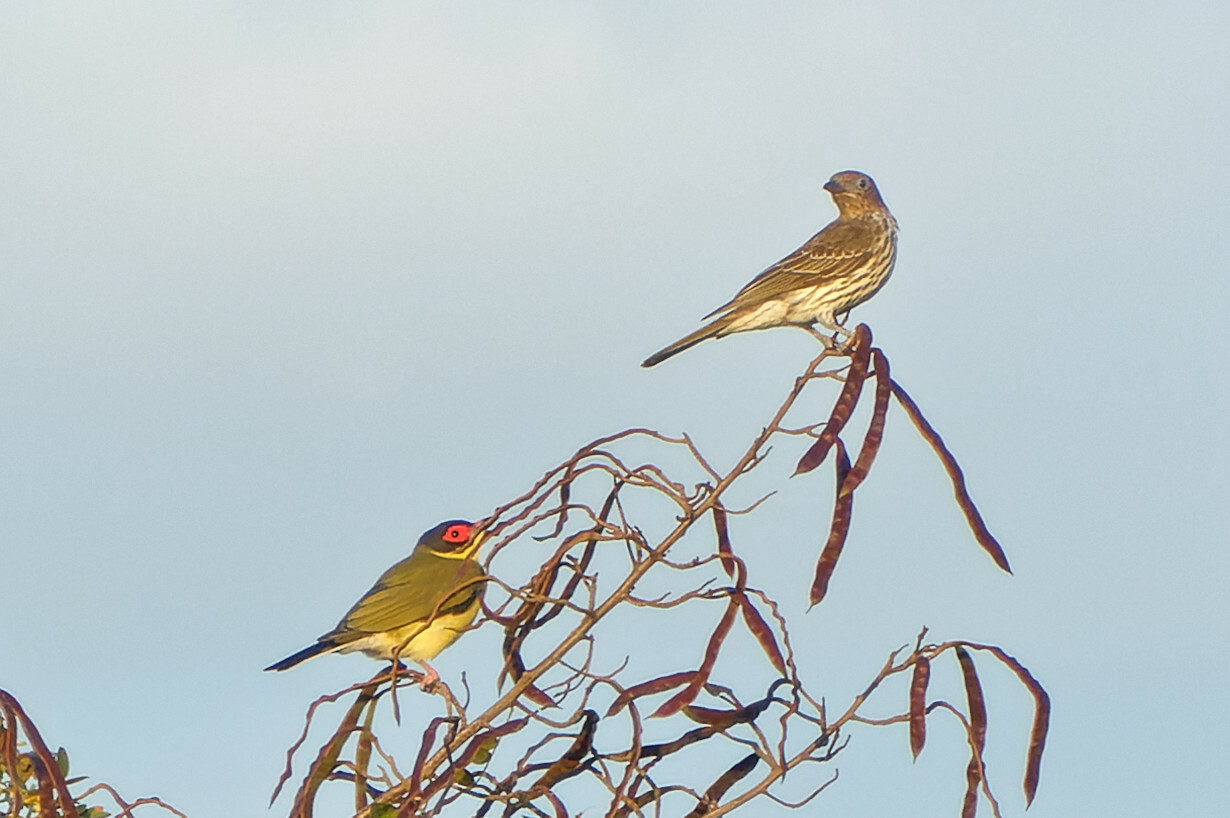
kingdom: Animalia
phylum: Chordata
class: Aves
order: Passeriformes
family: Oriolidae
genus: Sphecotheres
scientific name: Sphecotheres vieilloti
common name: Australasian figbird
